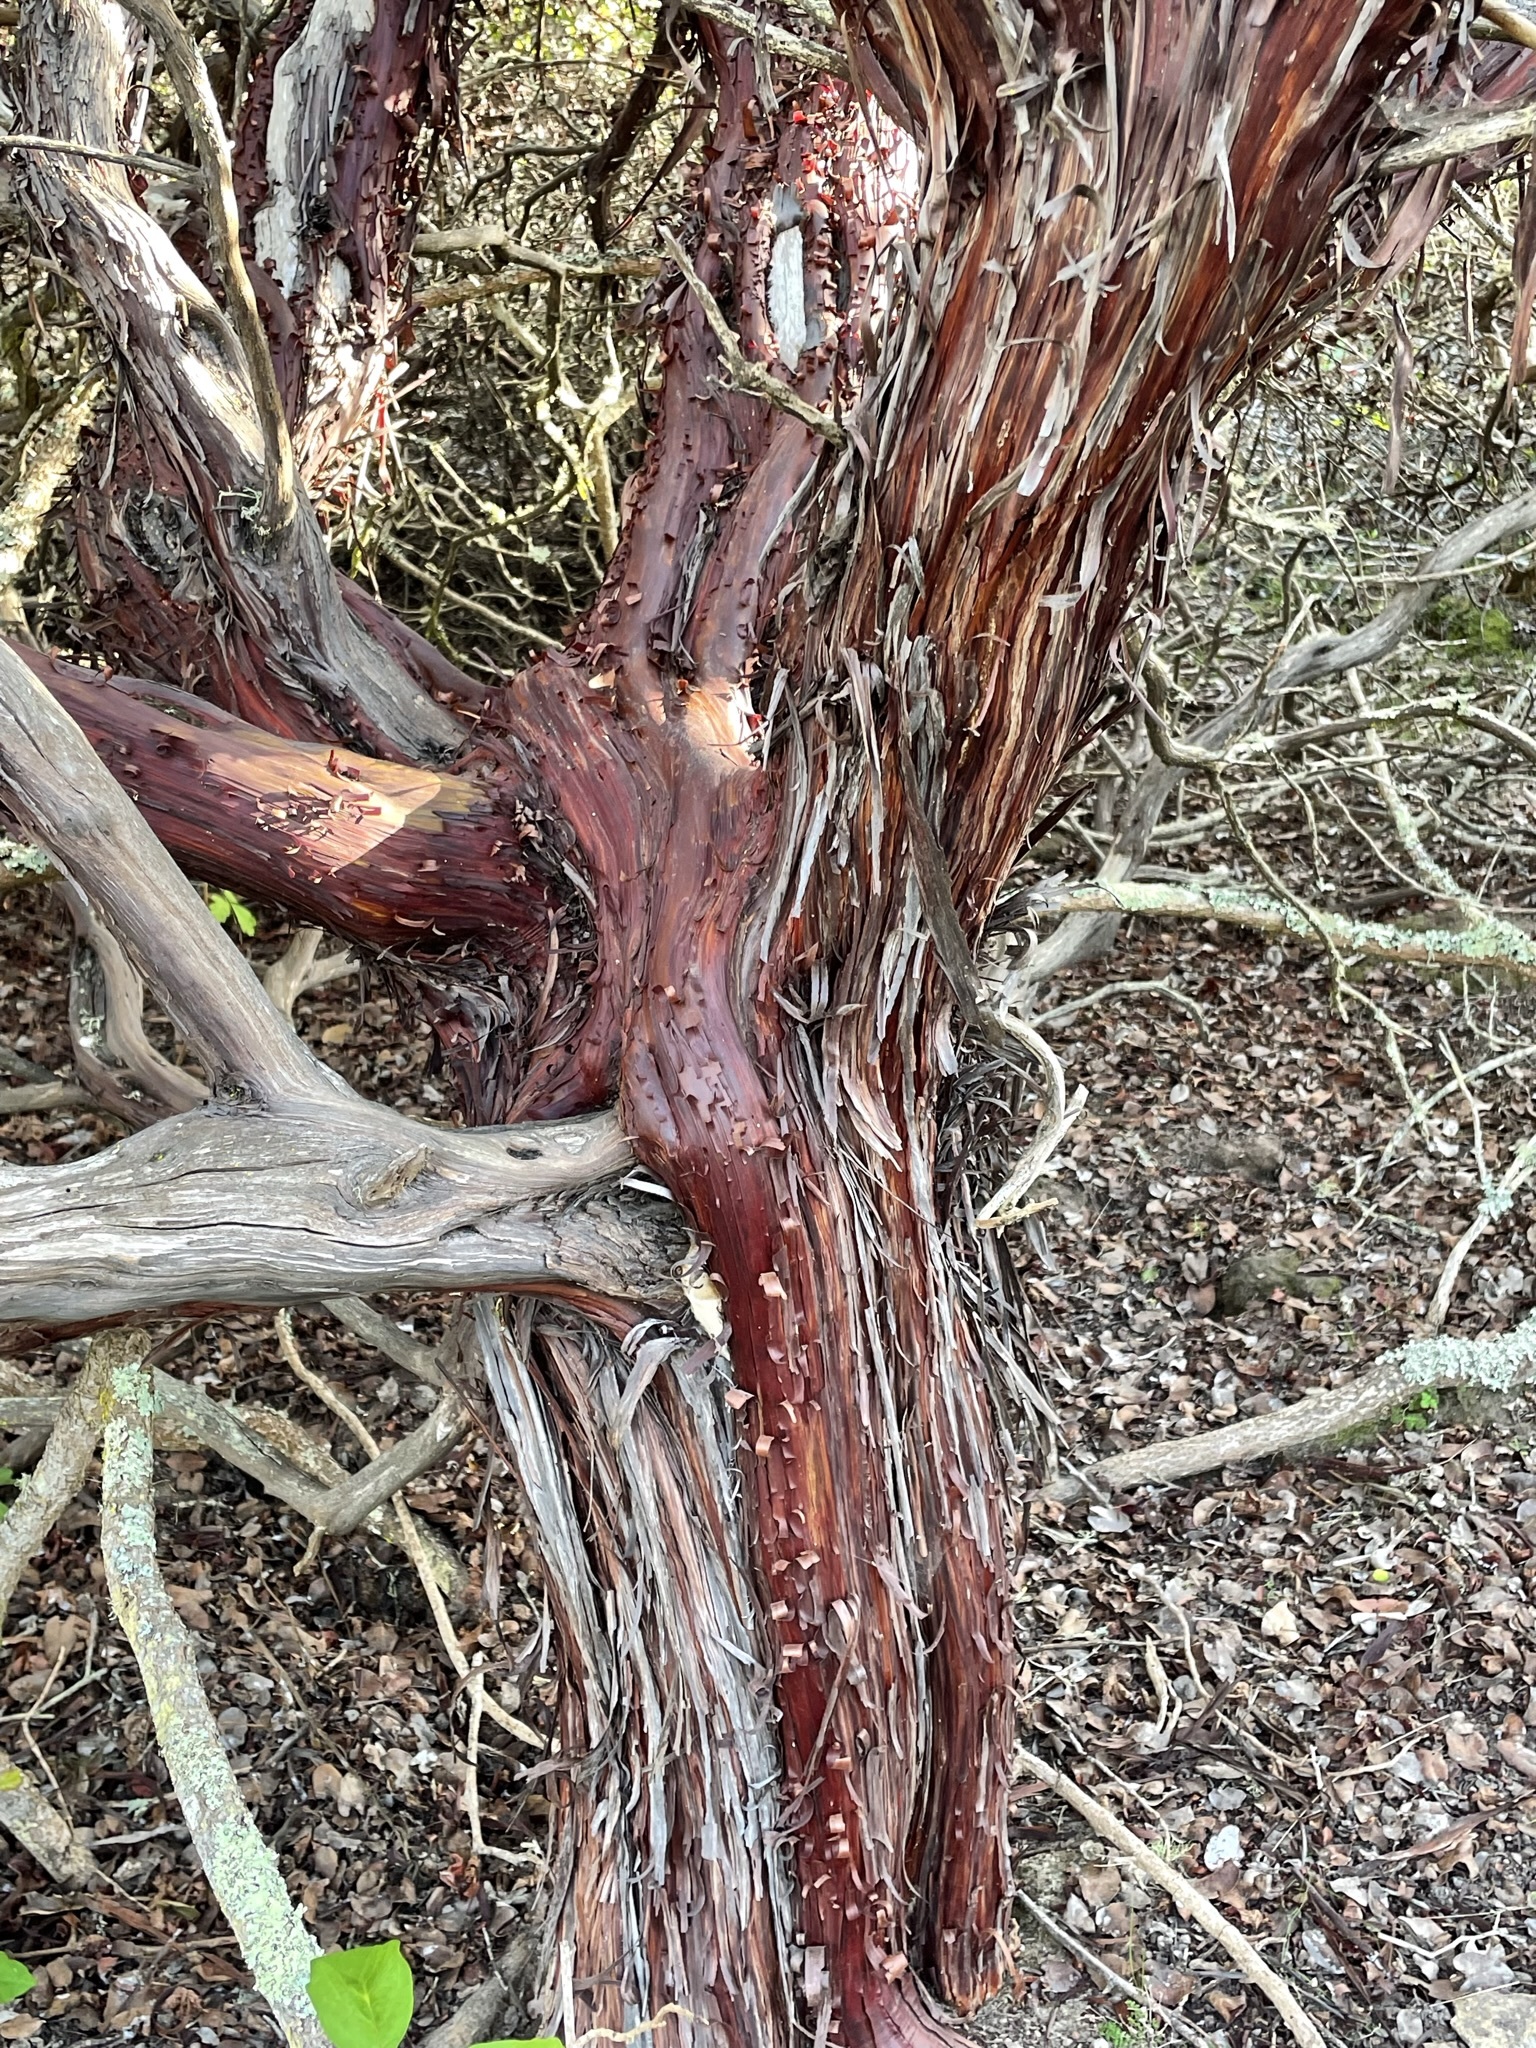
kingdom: Plantae
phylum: Tracheophyta
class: Magnoliopsida
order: Ericales
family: Ericaceae
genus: Arctostaphylos
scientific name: Arctostaphylos osoensis
